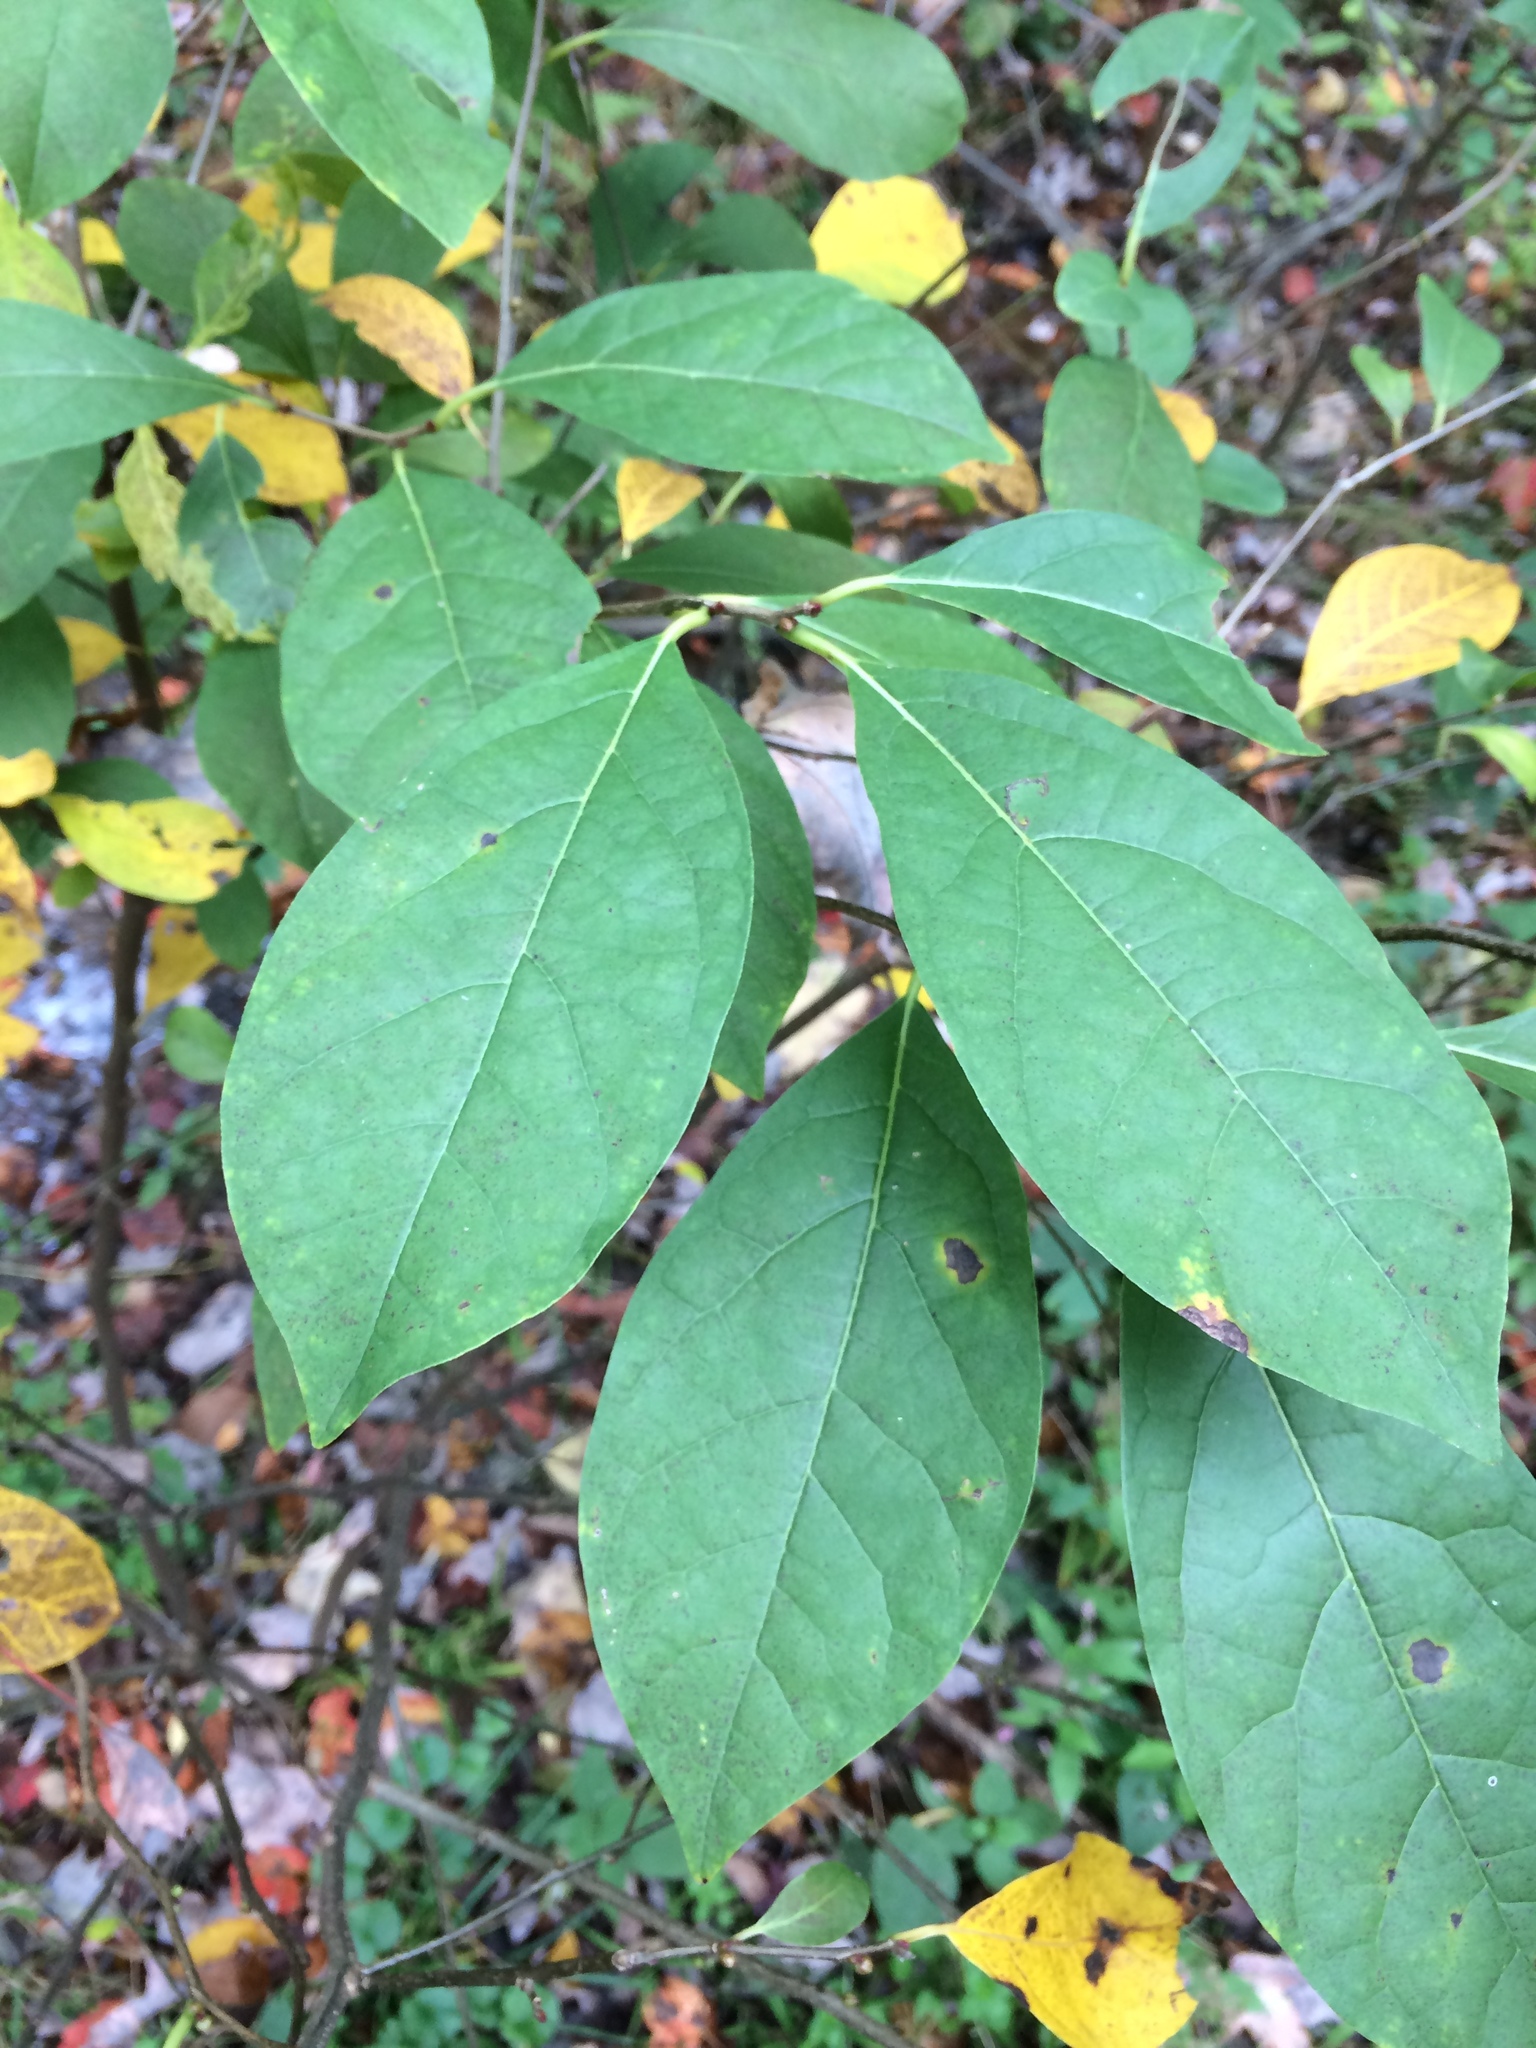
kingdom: Plantae
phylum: Tracheophyta
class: Magnoliopsida
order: Laurales
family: Lauraceae
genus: Lindera
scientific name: Lindera benzoin
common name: Spicebush
